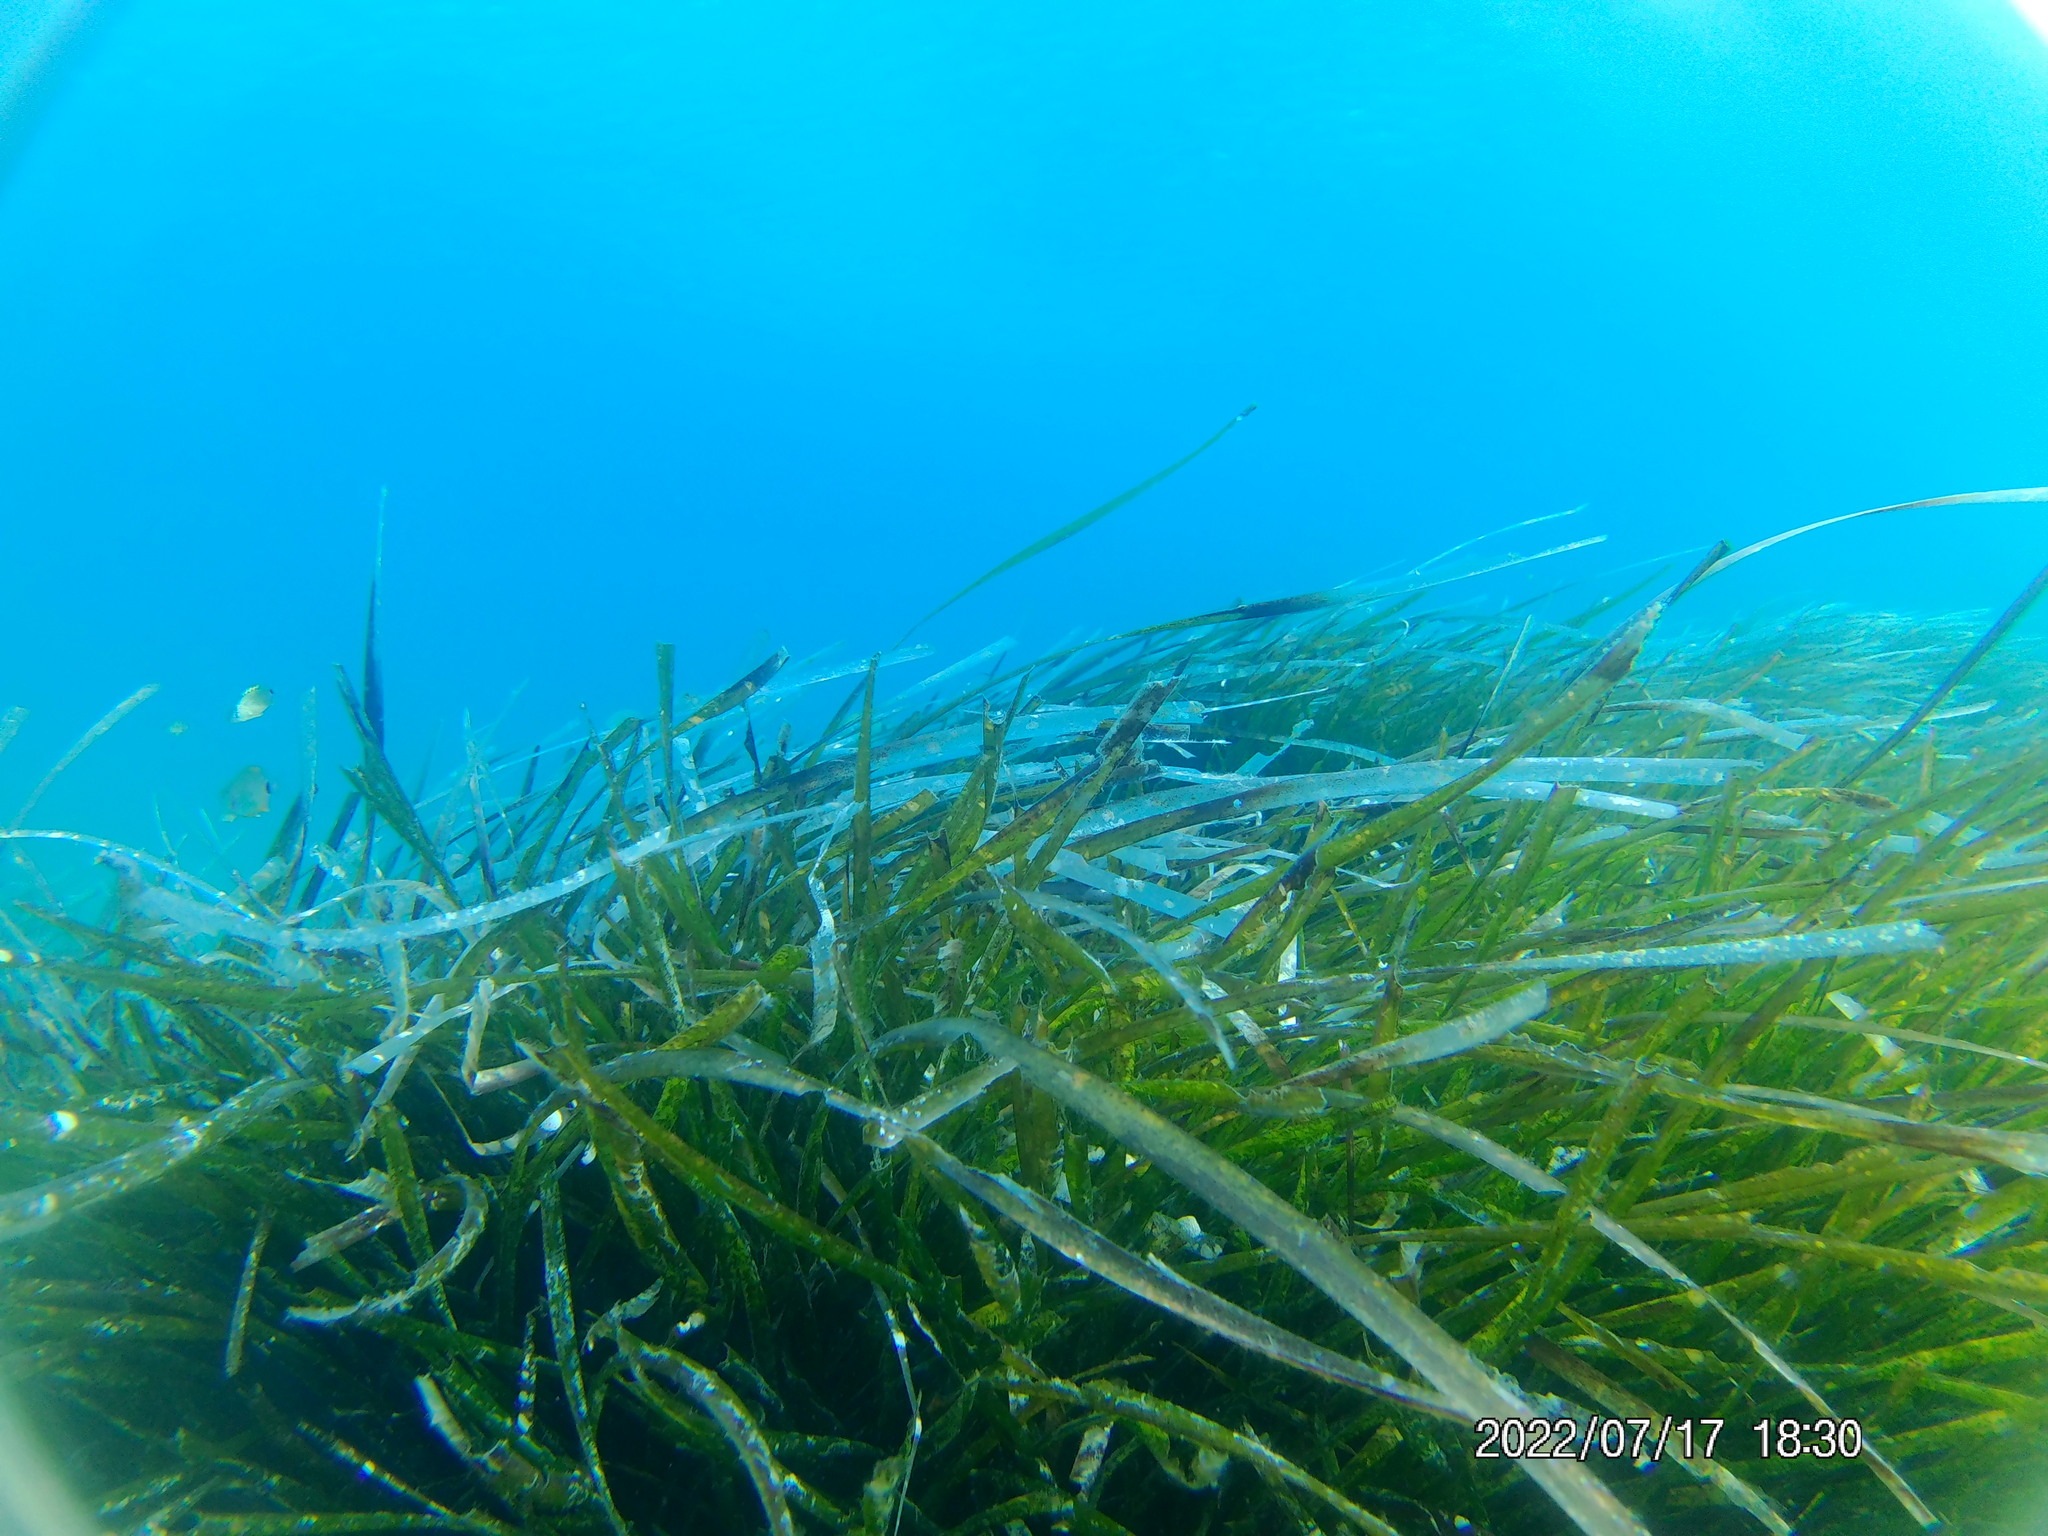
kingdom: Plantae
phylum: Tracheophyta
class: Liliopsida
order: Alismatales
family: Posidoniaceae
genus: Posidonia
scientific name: Posidonia oceanica
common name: Mediterranean tapeweed
